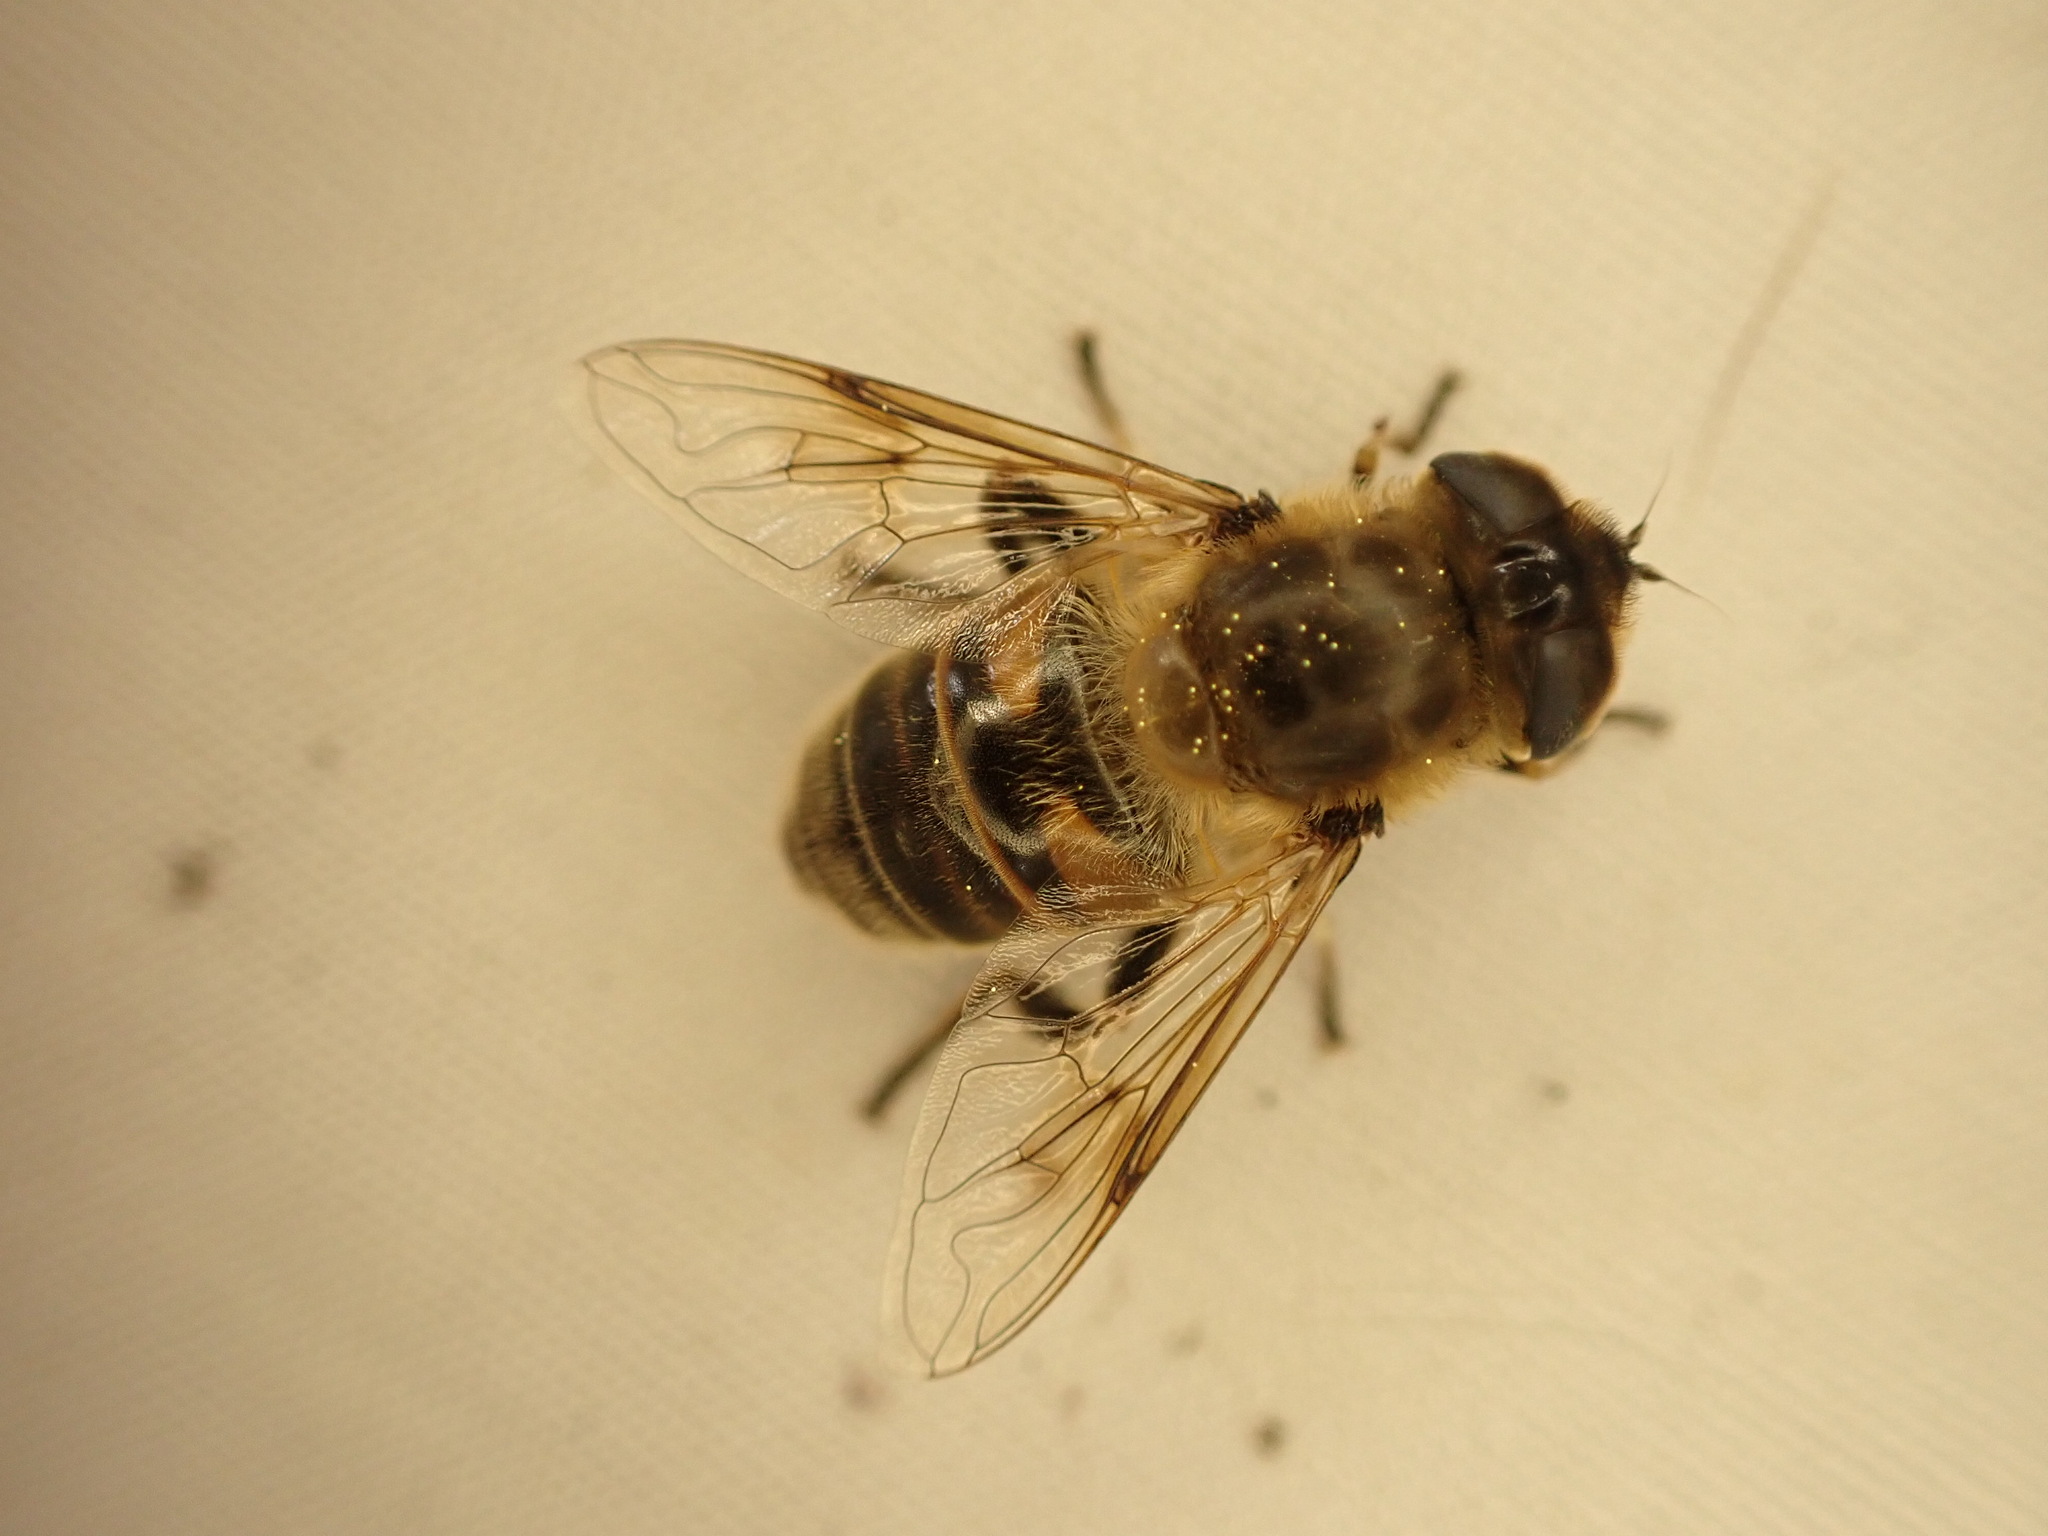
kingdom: Animalia
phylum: Arthropoda
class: Insecta
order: Diptera
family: Syrphidae
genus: Eristalis
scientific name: Eristalis tenax
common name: Drone fly
